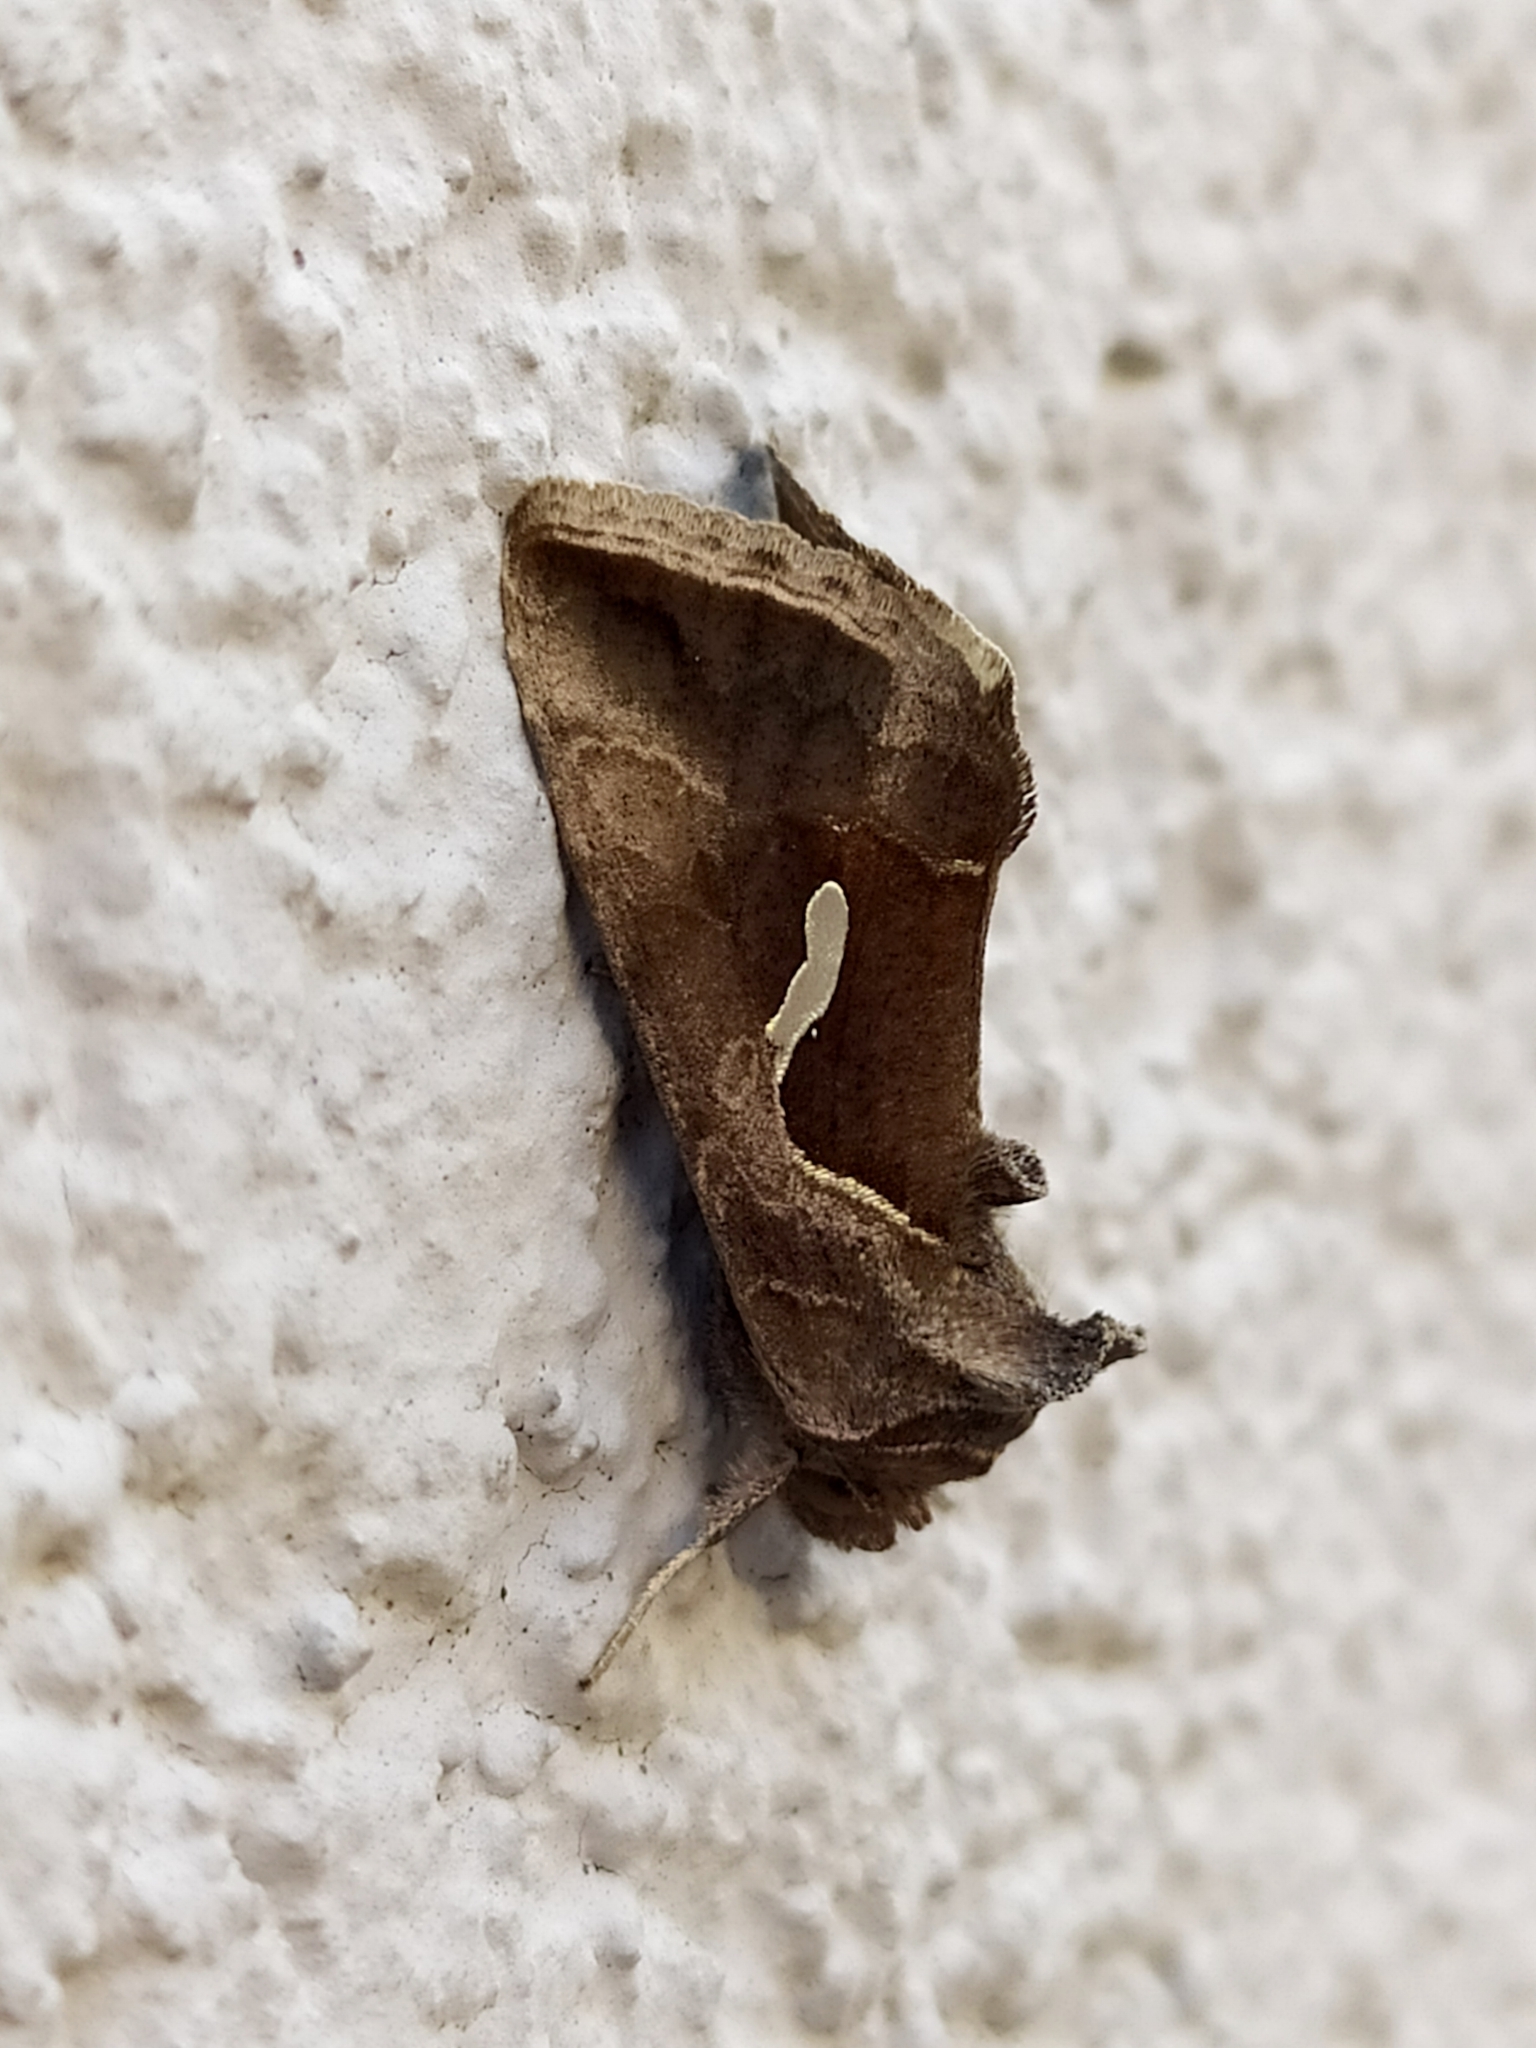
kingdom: Animalia
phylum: Arthropoda
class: Insecta
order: Lepidoptera
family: Noctuidae
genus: Macdunnoughia
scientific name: Macdunnoughia confusa
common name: Dewick's plusia
